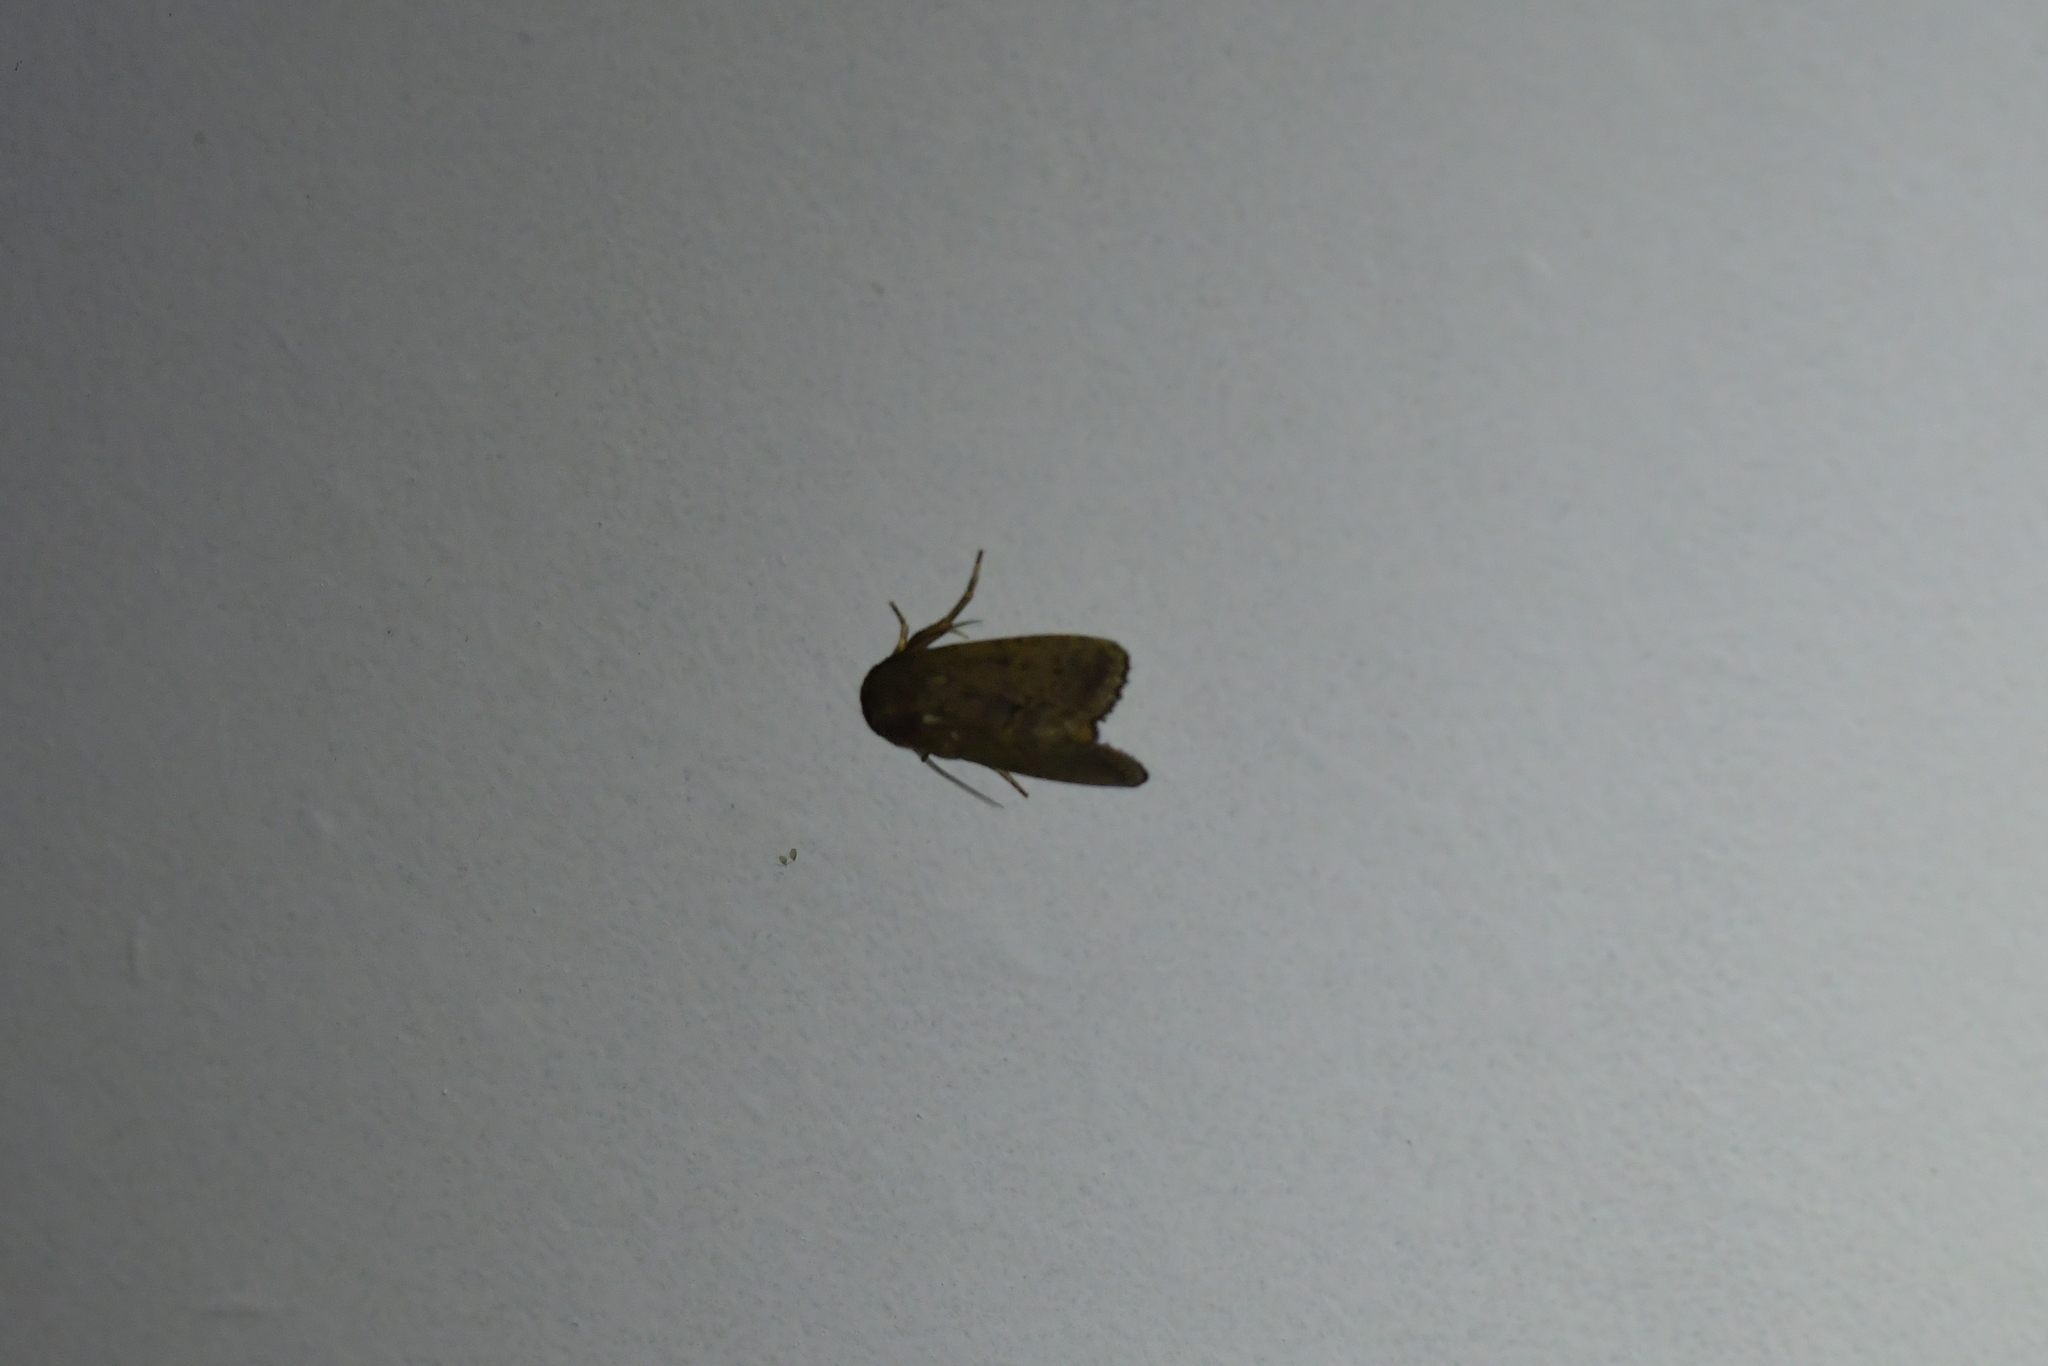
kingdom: Animalia
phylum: Arthropoda
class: Insecta
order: Lepidoptera
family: Noctuidae
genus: Bityla
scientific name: Bityla defigurata
